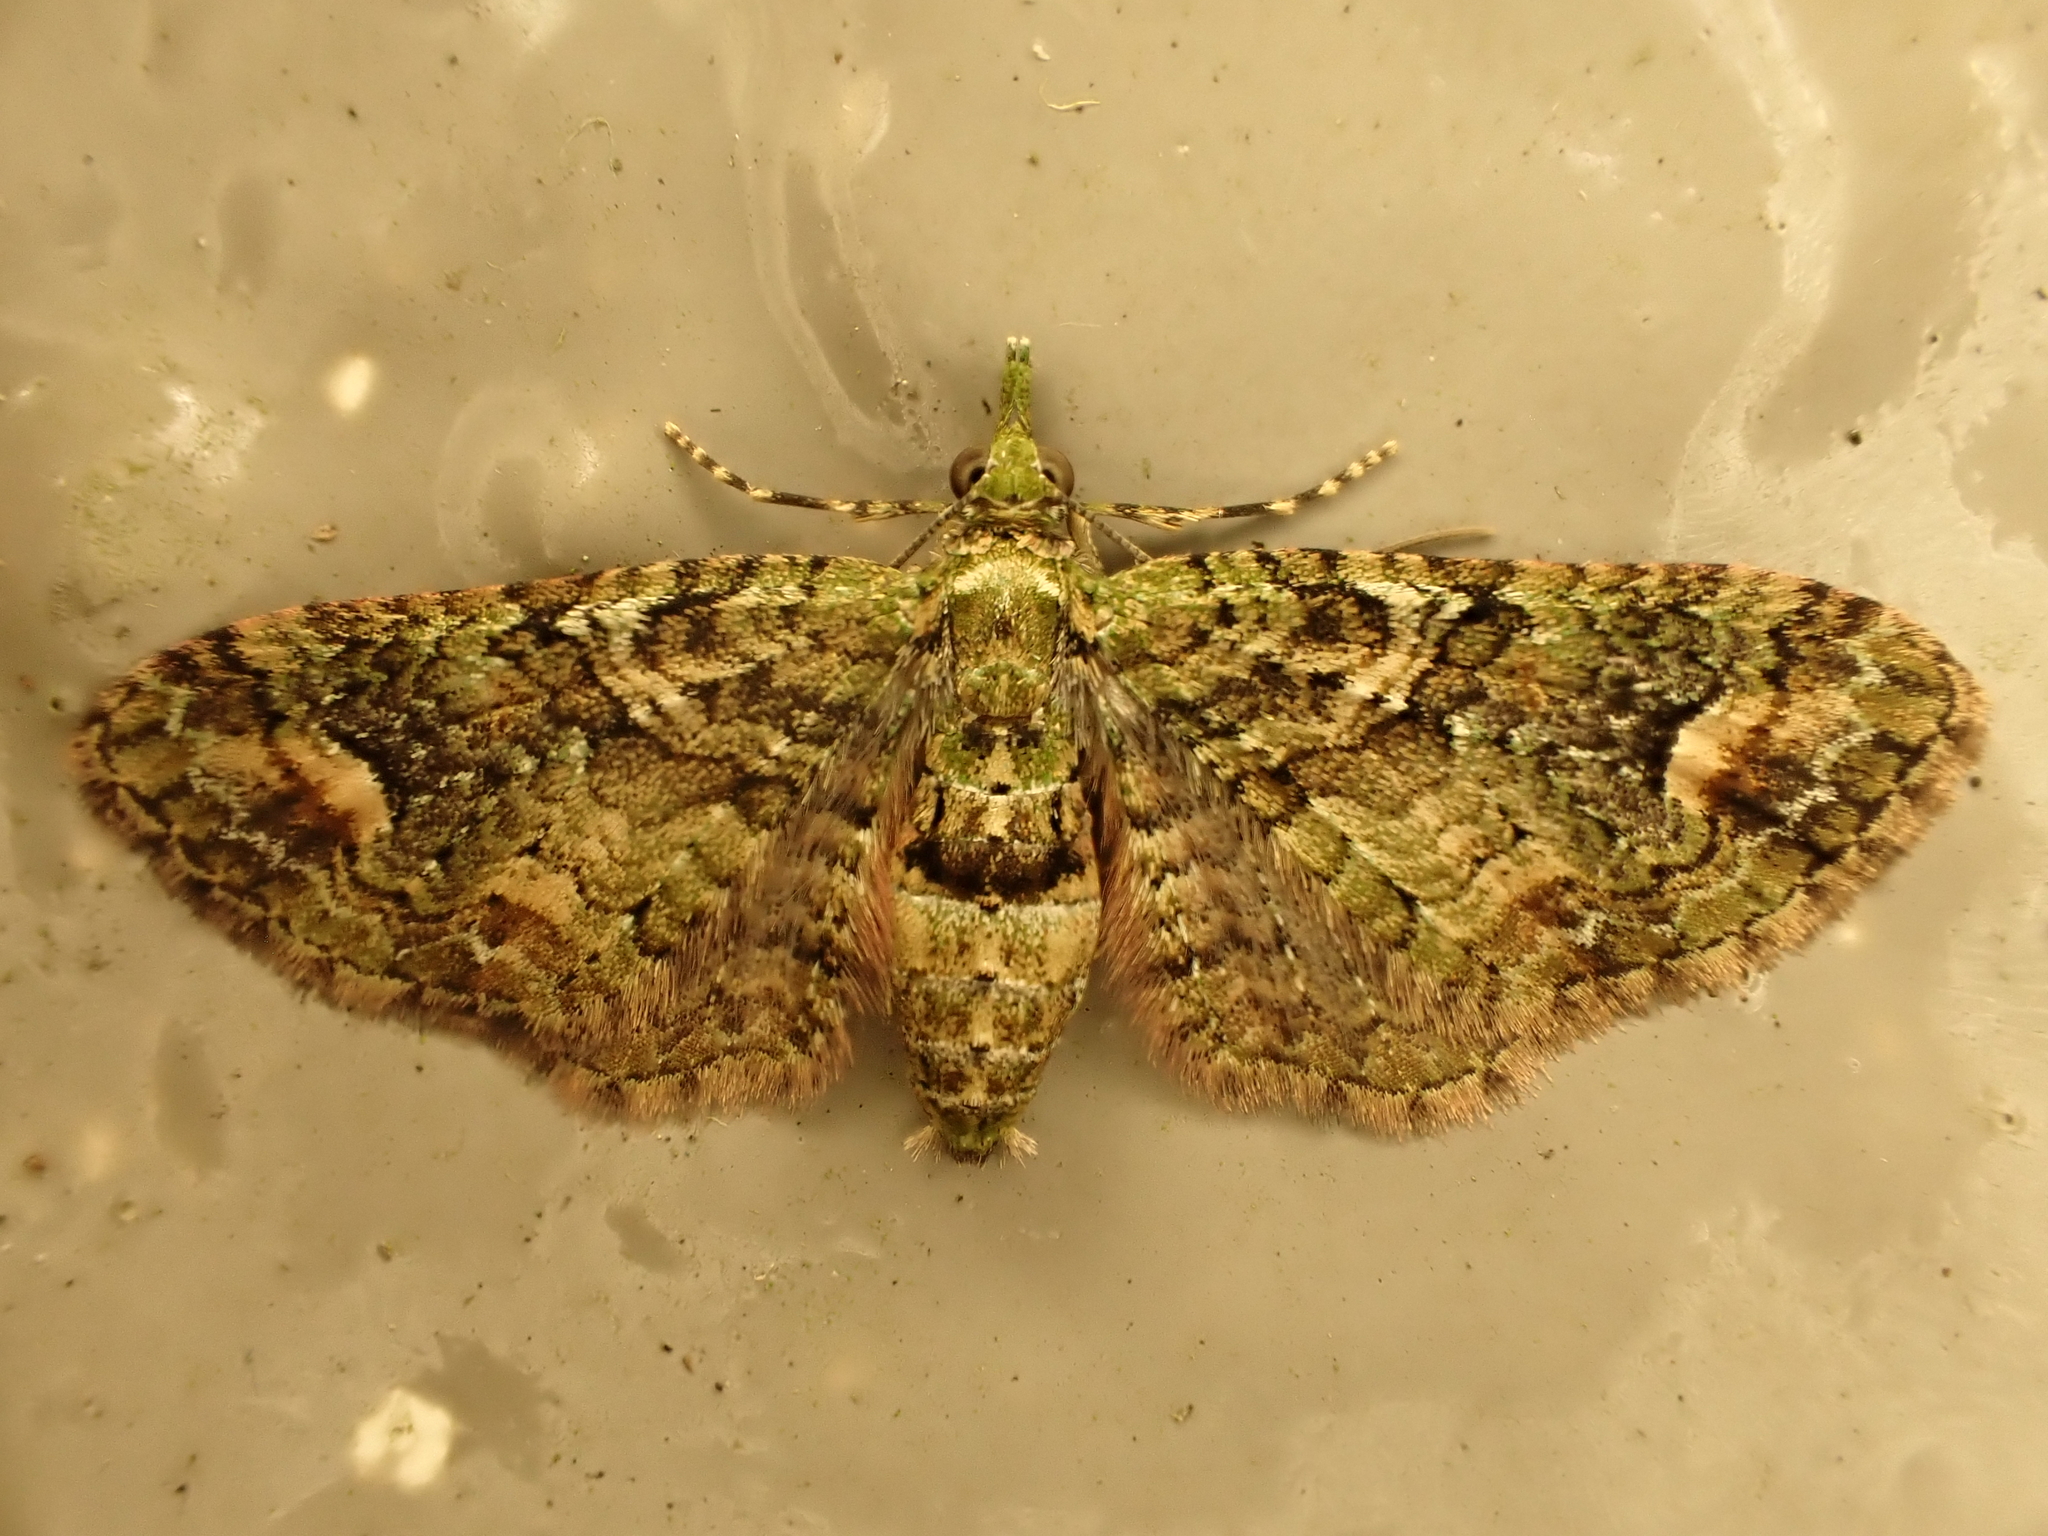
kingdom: Animalia
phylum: Arthropoda
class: Insecta
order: Lepidoptera
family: Geometridae
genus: Idaea
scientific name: Idaea mutanda
